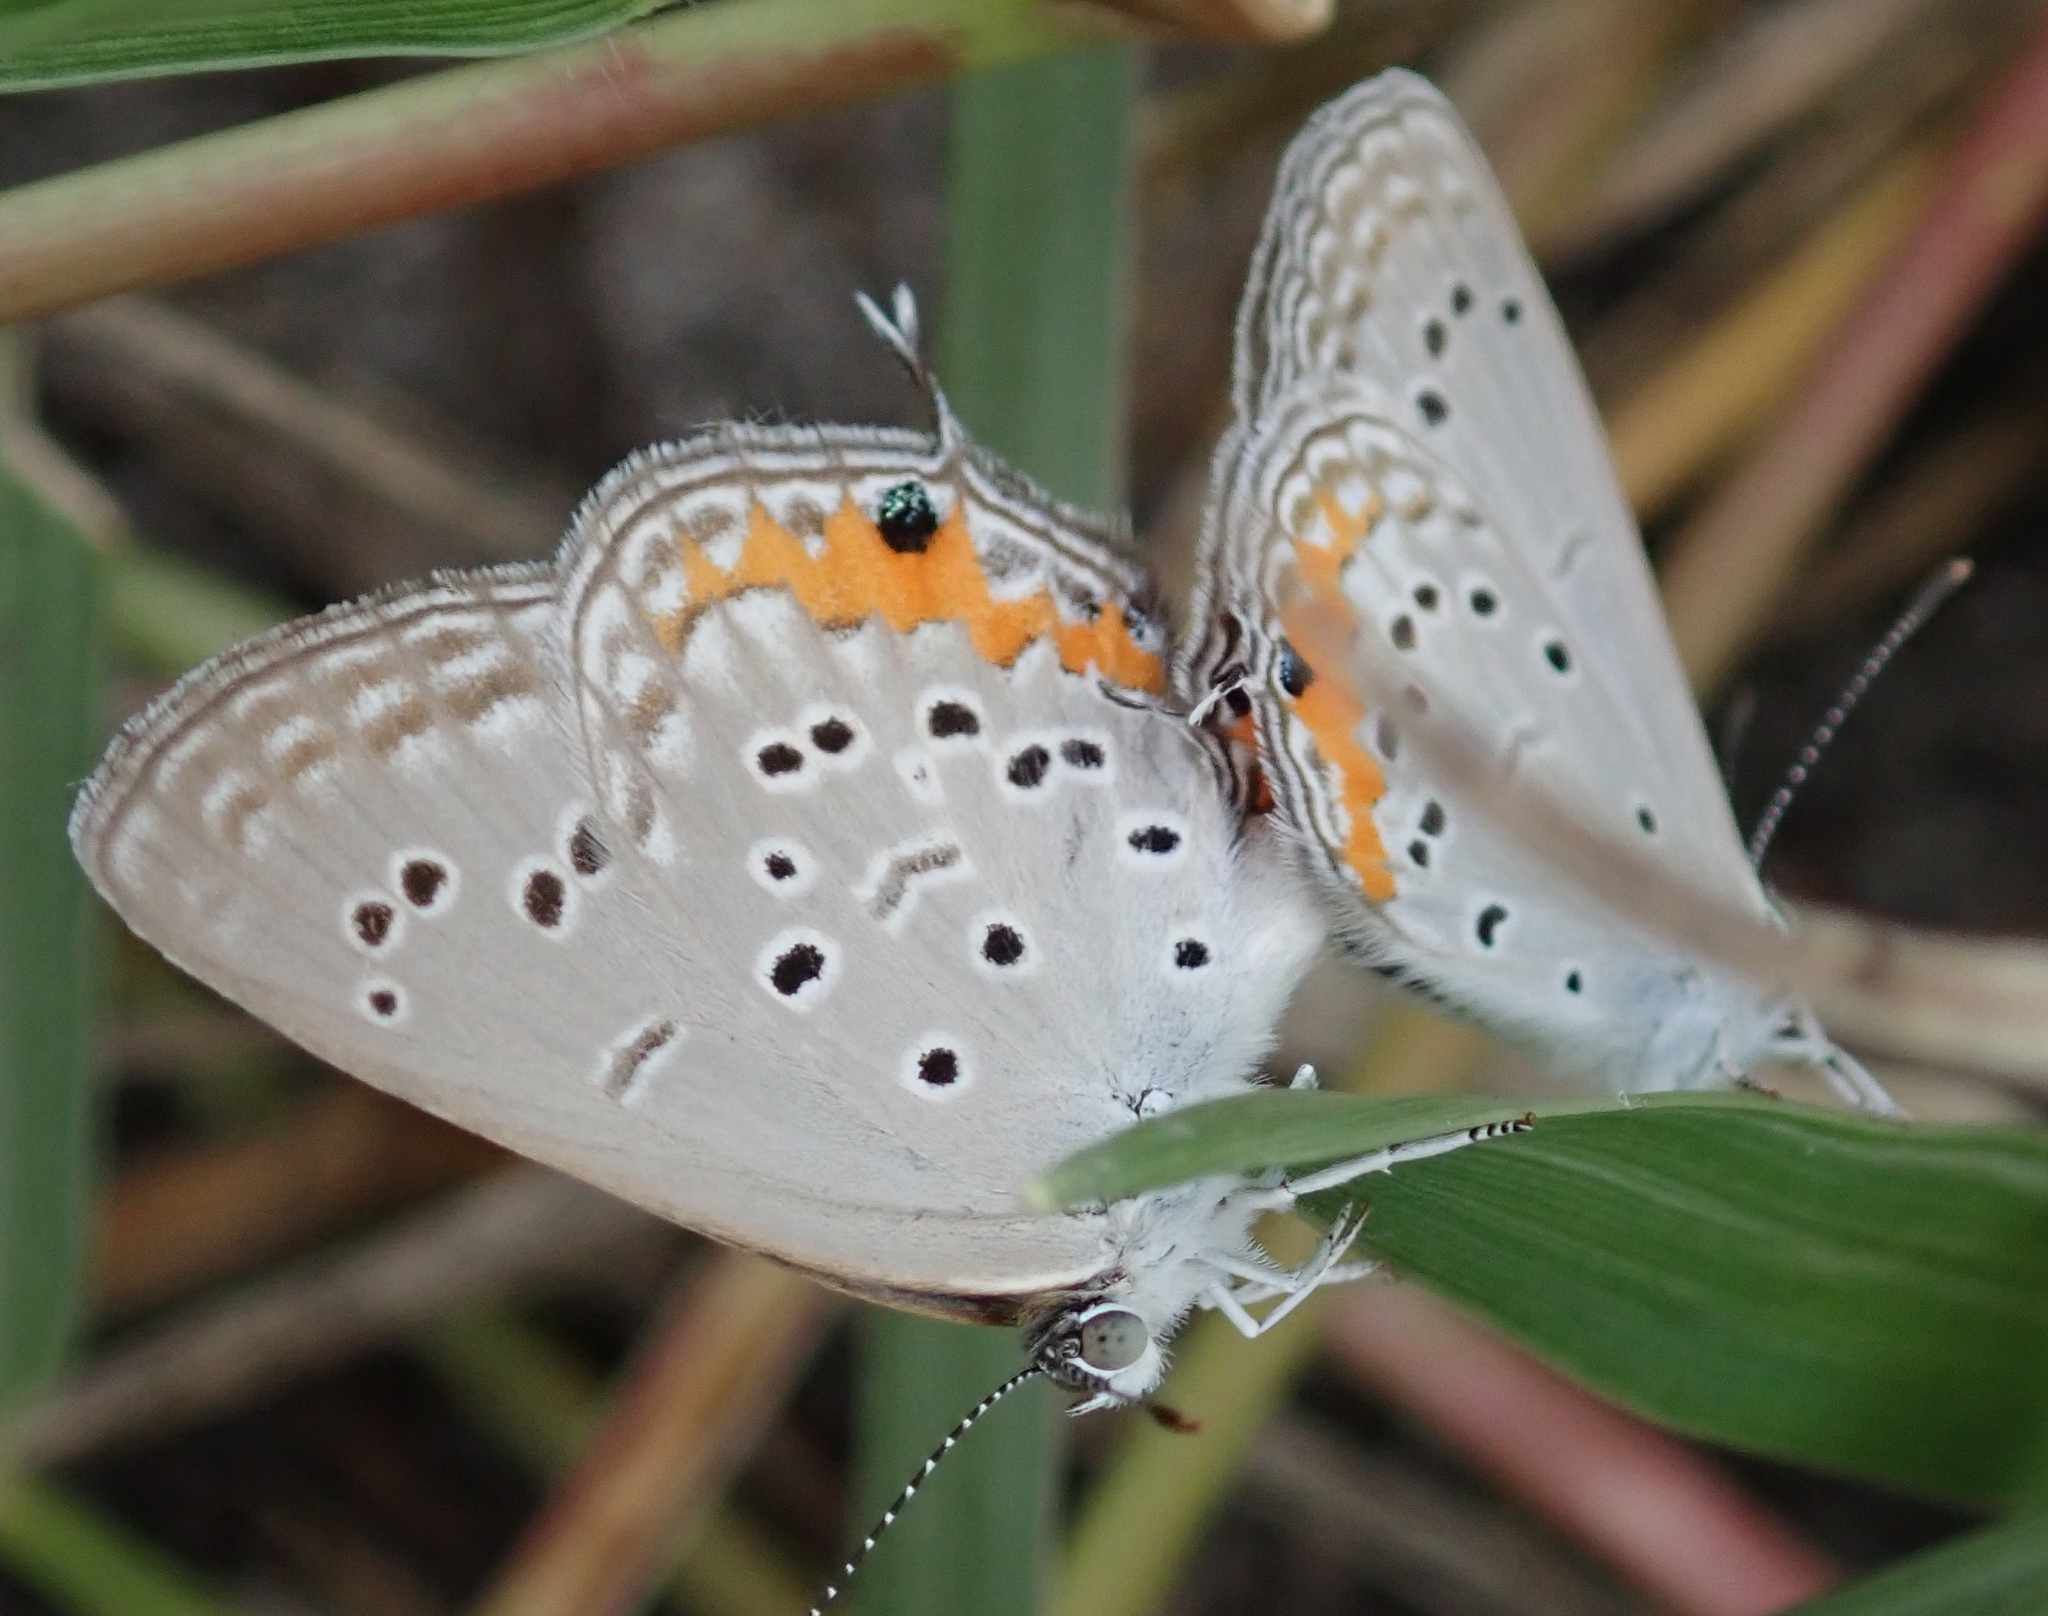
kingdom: Animalia
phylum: Arthropoda
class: Insecta
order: Lepidoptera
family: Lycaenidae
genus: Cupidopsis
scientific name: Cupidopsis jobates
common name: Tailed meadow blue
